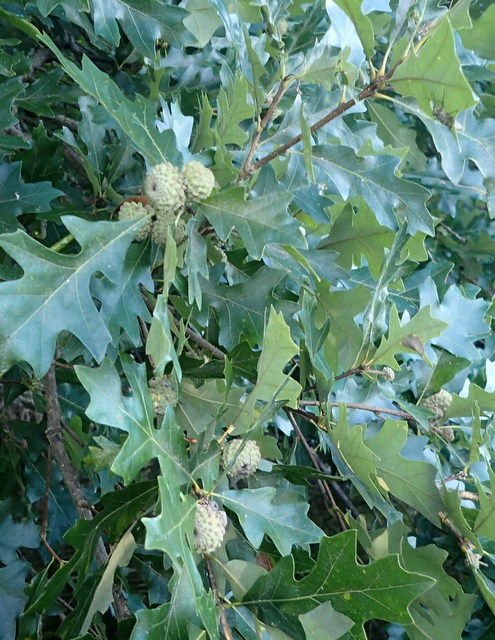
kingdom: Plantae
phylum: Tracheophyta
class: Magnoliopsida
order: Fagales
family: Fagaceae
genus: Quercus
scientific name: Quercus lyrata
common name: Overcup oak
